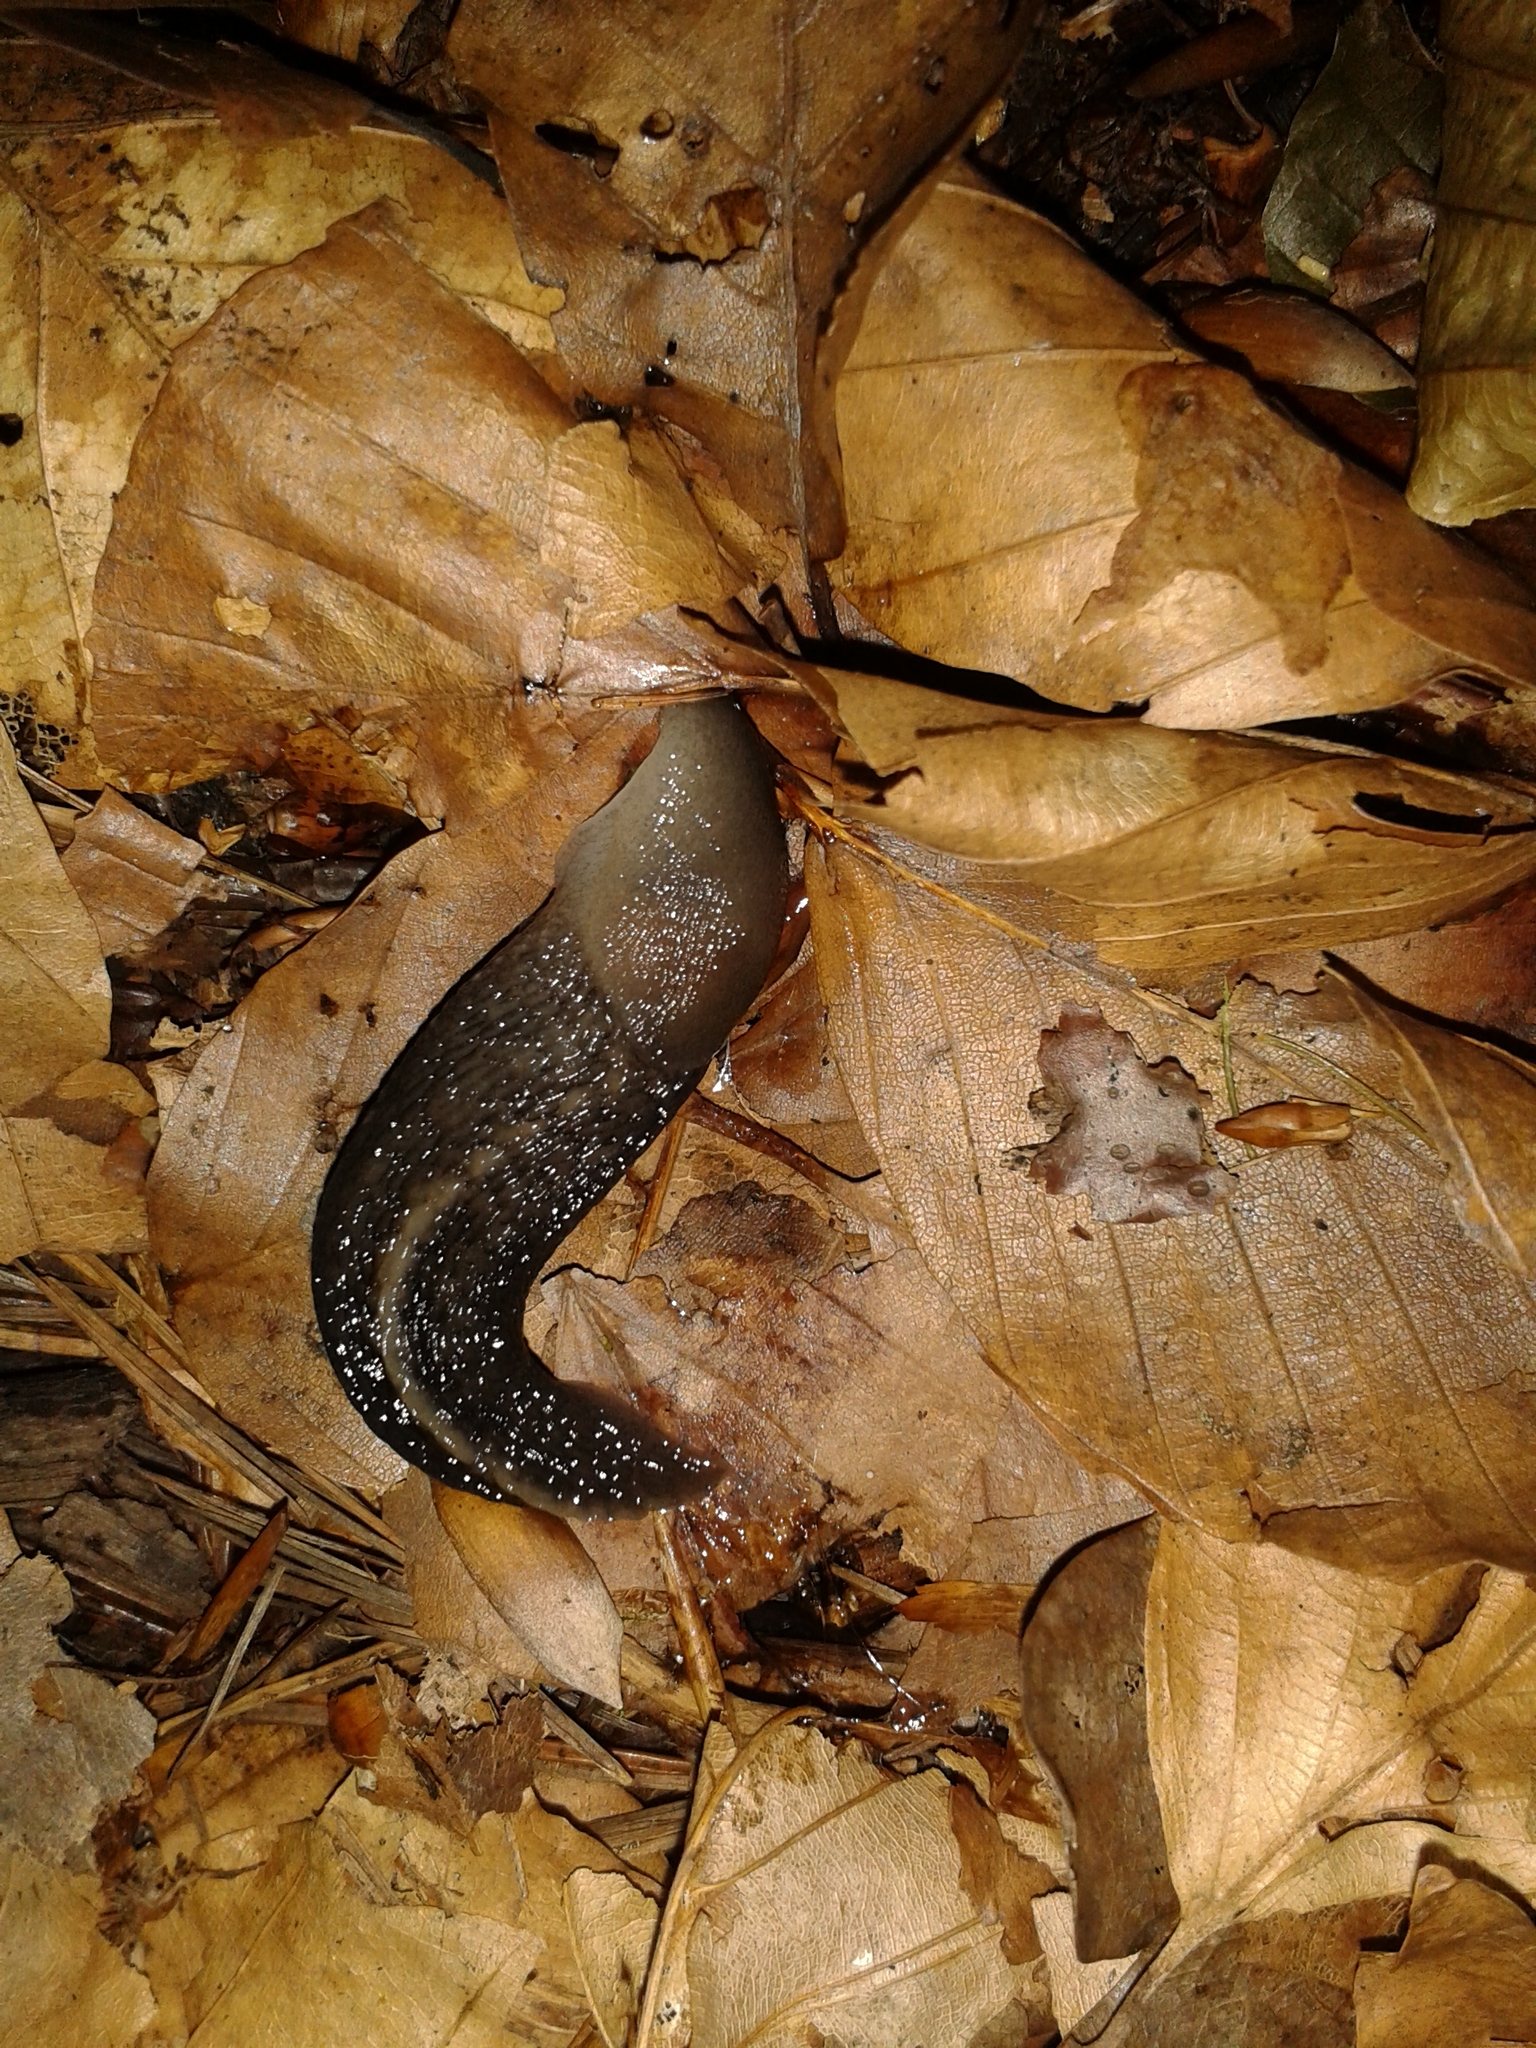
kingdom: Animalia
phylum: Mollusca
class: Gastropoda
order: Stylommatophora
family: Limacidae
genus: Limax
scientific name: Limax cinereoniger
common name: Ash-black slug
